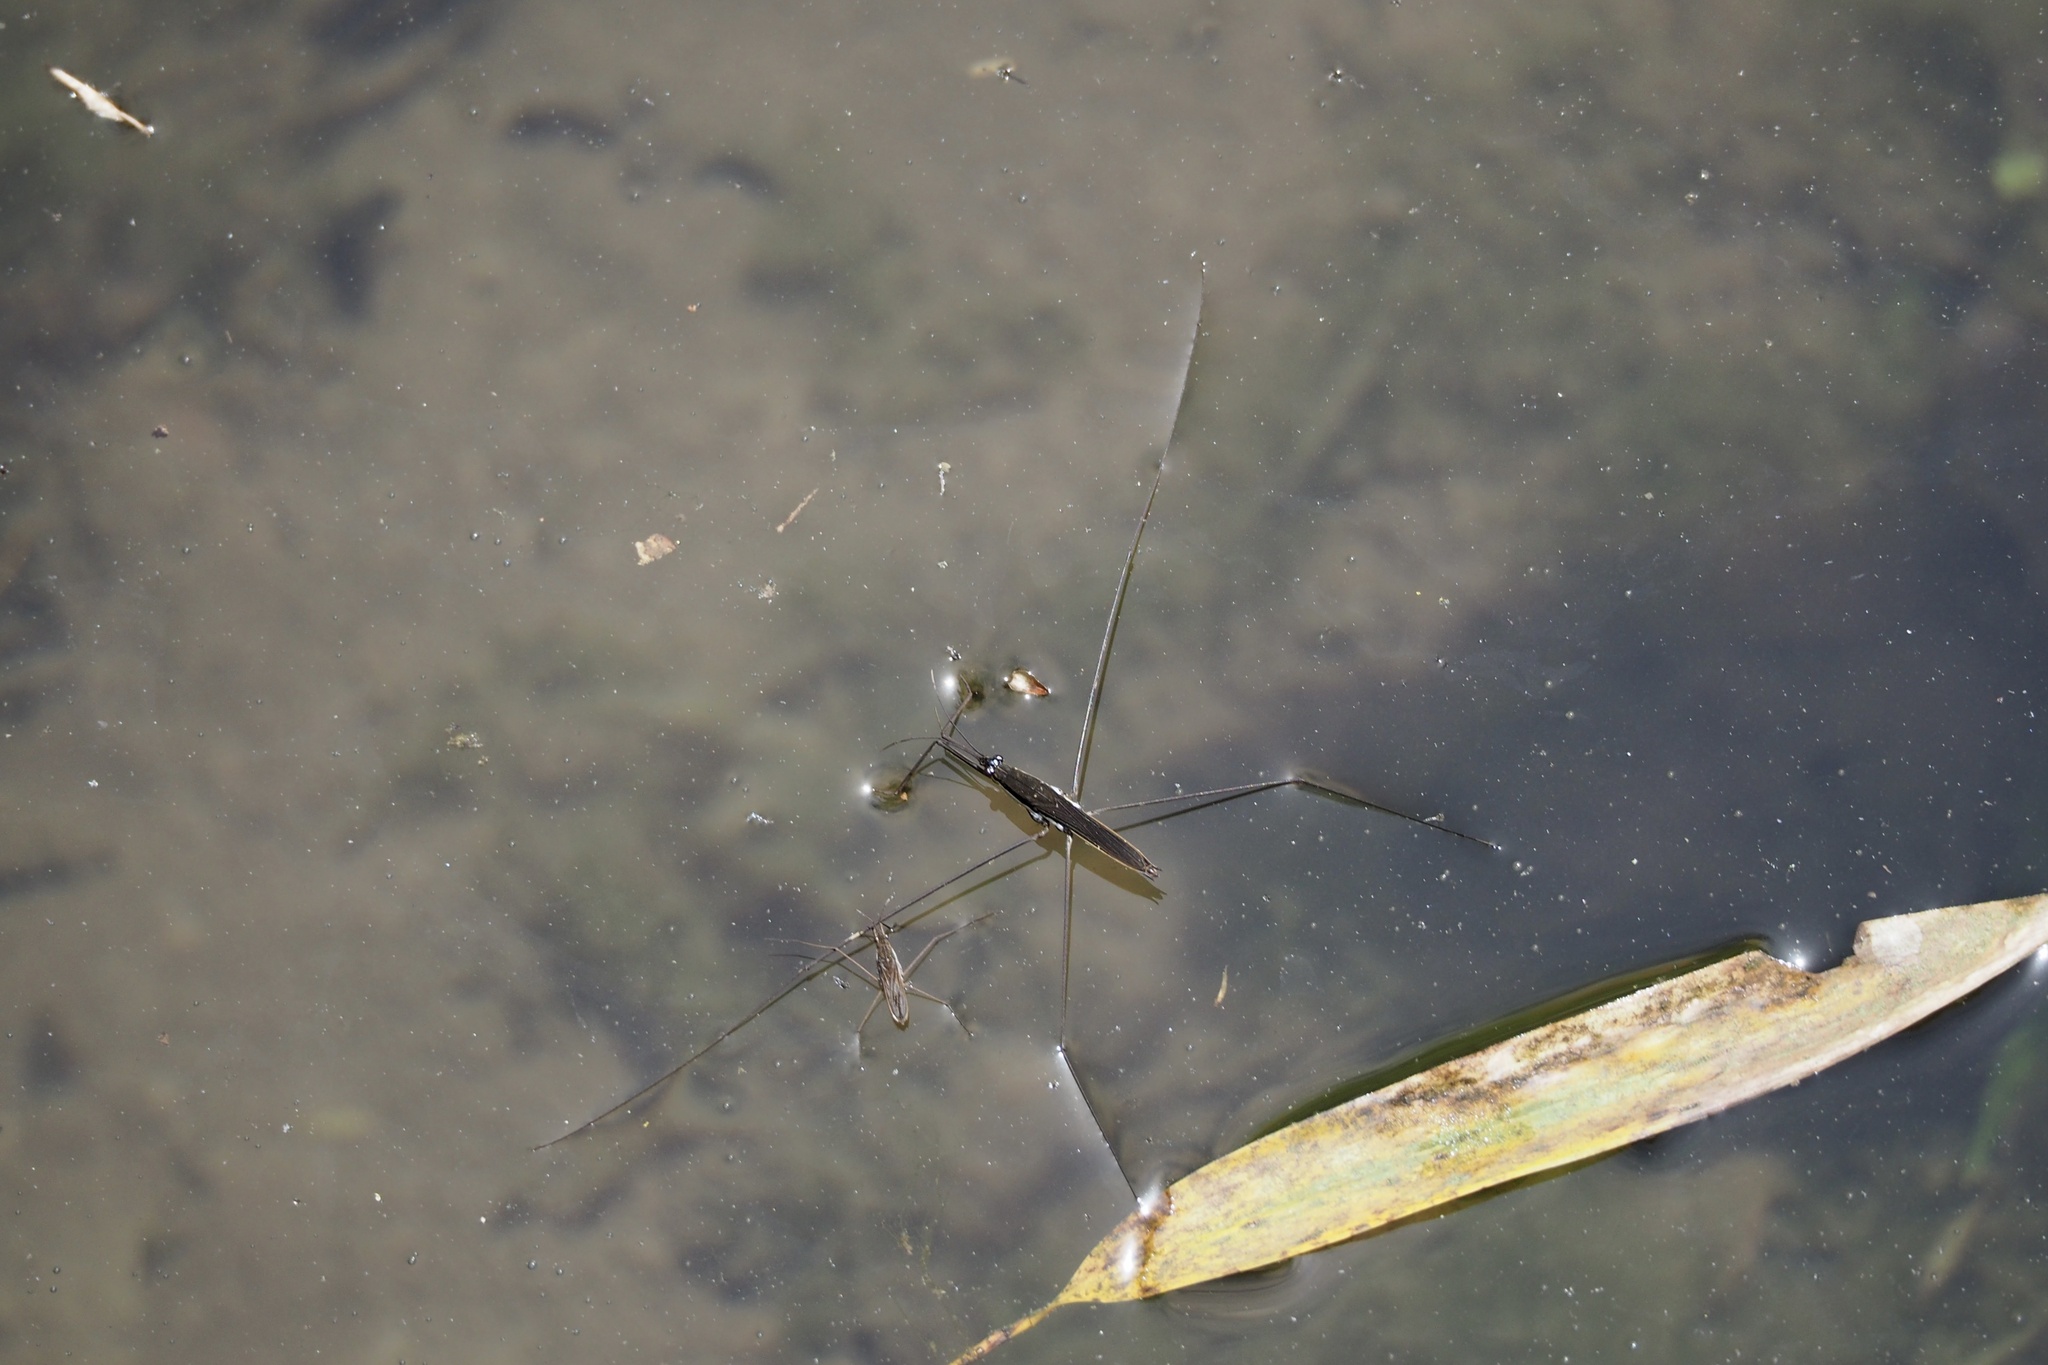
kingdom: Animalia
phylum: Arthropoda
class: Insecta
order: Hemiptera
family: Gerridae
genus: Aquarius
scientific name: Aquarius elongatus
